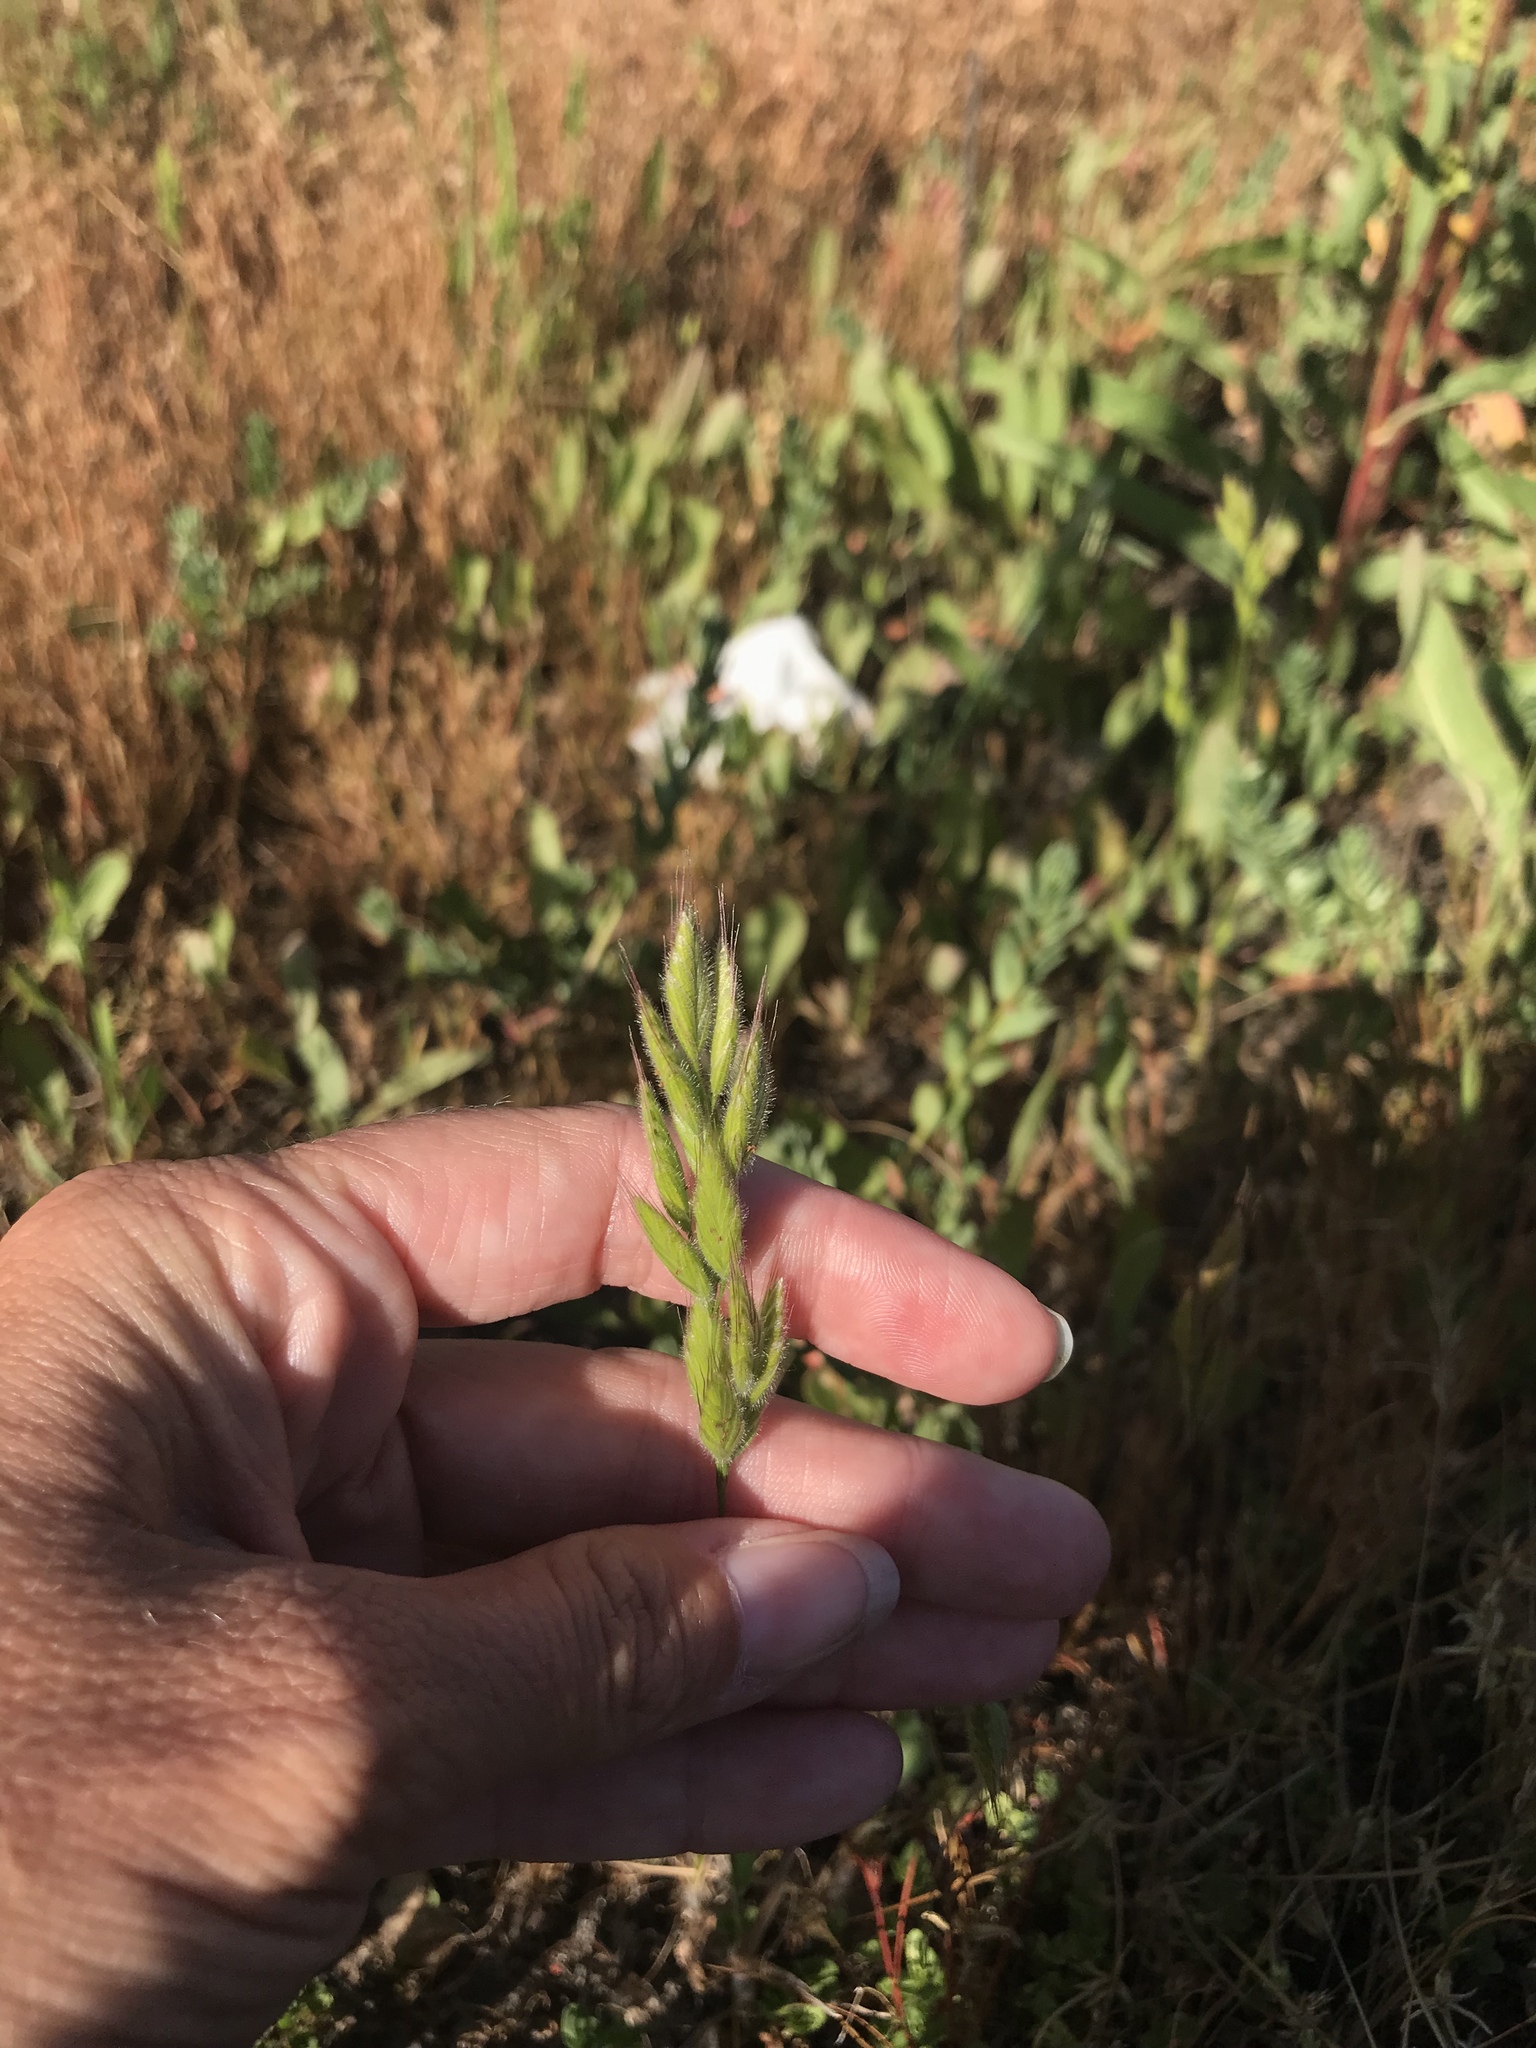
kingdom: Plantae
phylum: Tracheophyta
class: Liliopsida
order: Poales
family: Poaceae
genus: Bromus
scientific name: Bromus hordeaceus
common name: Soft brome
